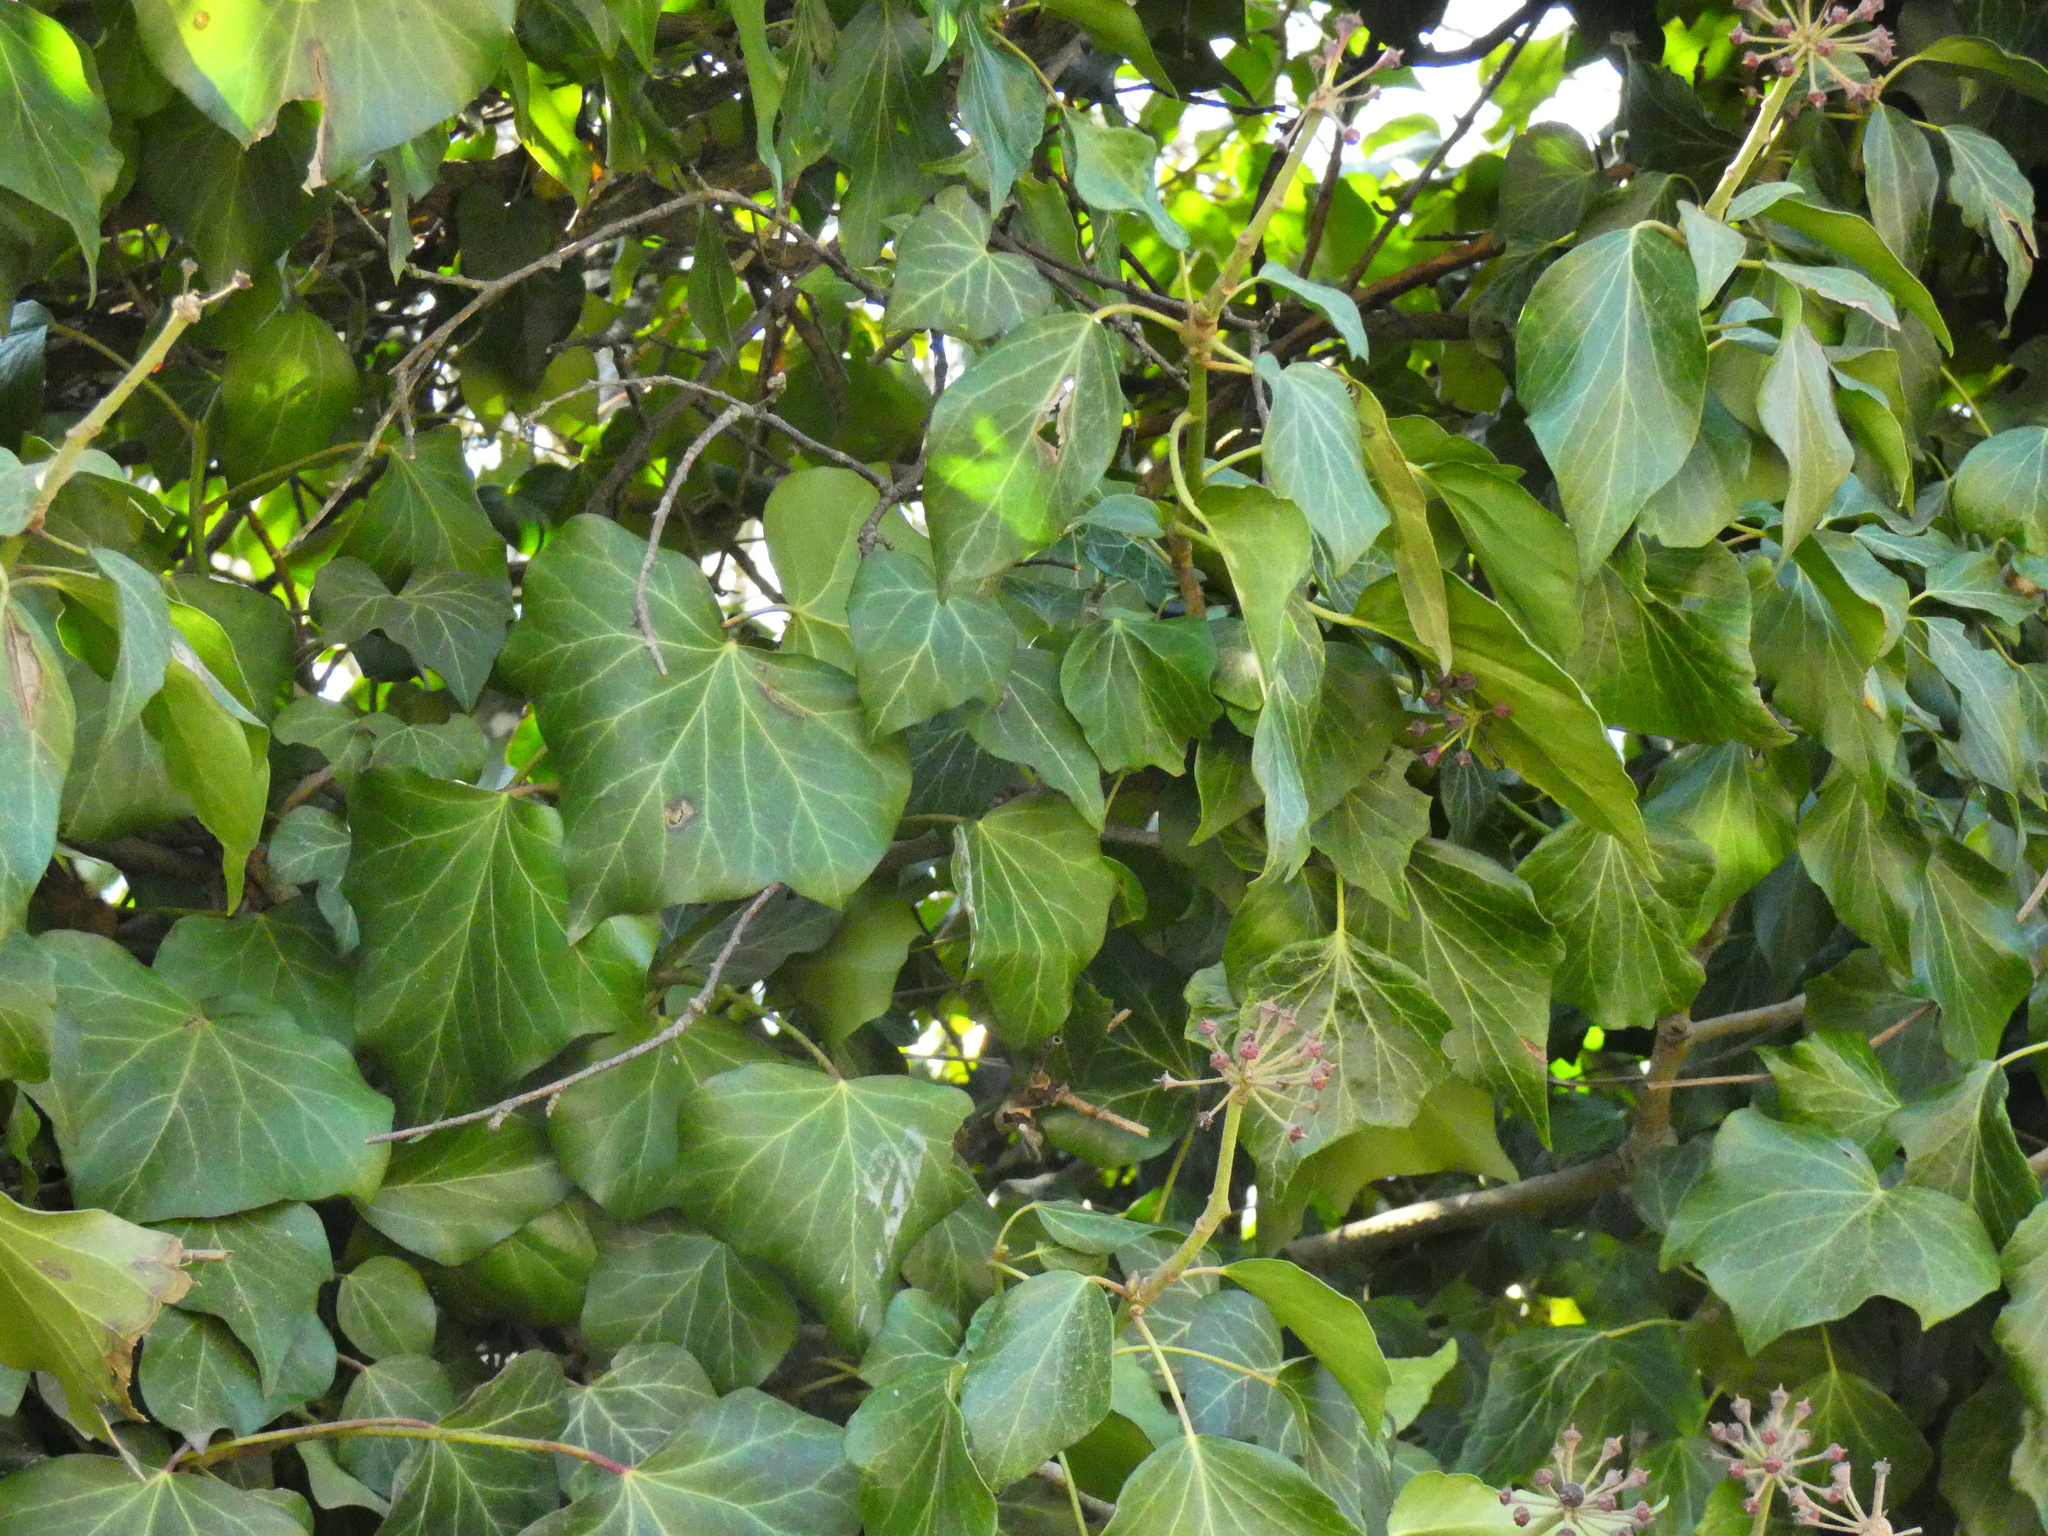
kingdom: Plantae
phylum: Tracheophyta
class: Magnoliopsida
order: Apiales
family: Araliaceae
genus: Hedera
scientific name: Hedera helix
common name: Ivy
